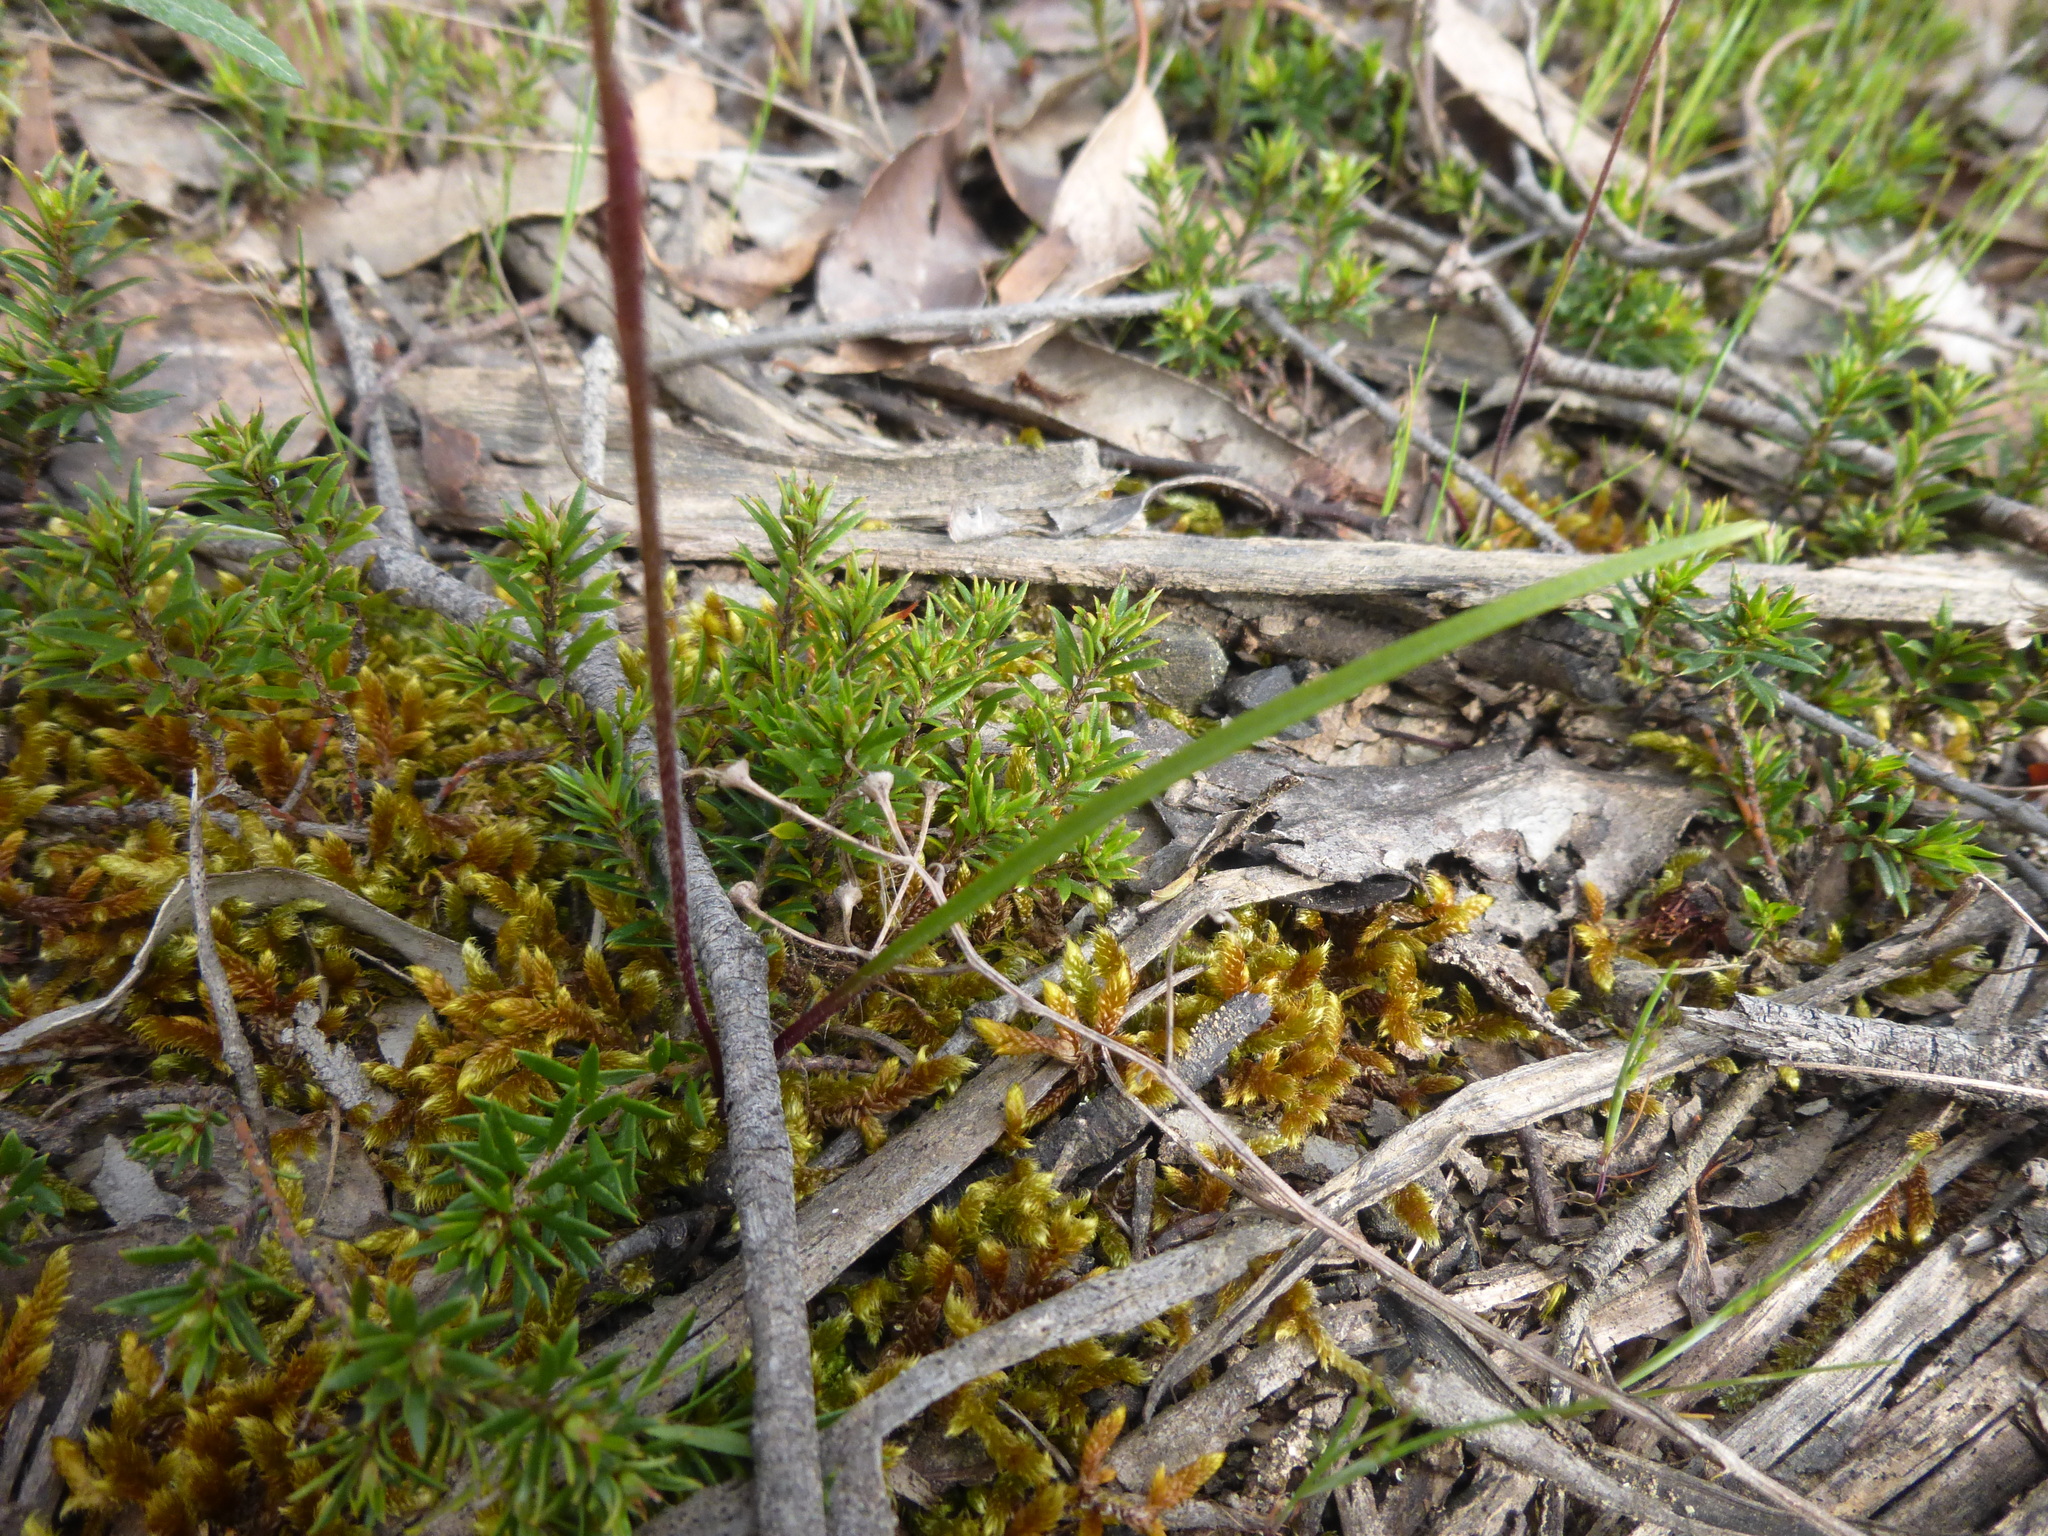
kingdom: Plantae
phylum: Tracheophyta
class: Liliopsida
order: Asparagales
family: Orchidaceae
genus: Caladenia
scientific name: Caladenia moschata
